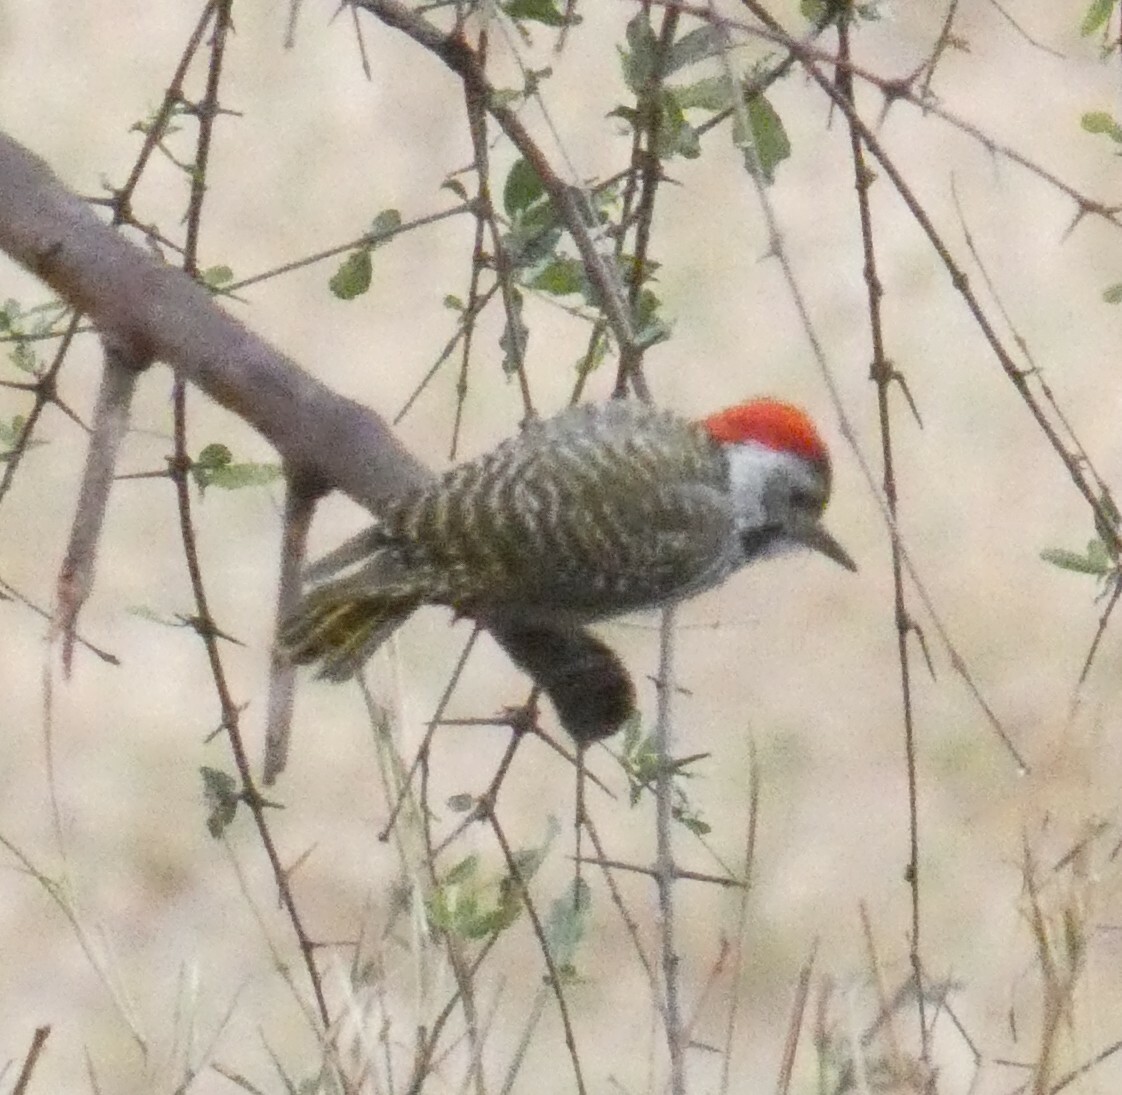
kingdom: Animalia
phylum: Chordata
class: Aves
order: Piciformes
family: Picidae
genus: Dendropicos
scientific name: Dendropicos fuscescens
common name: Cardinal woodpecker
